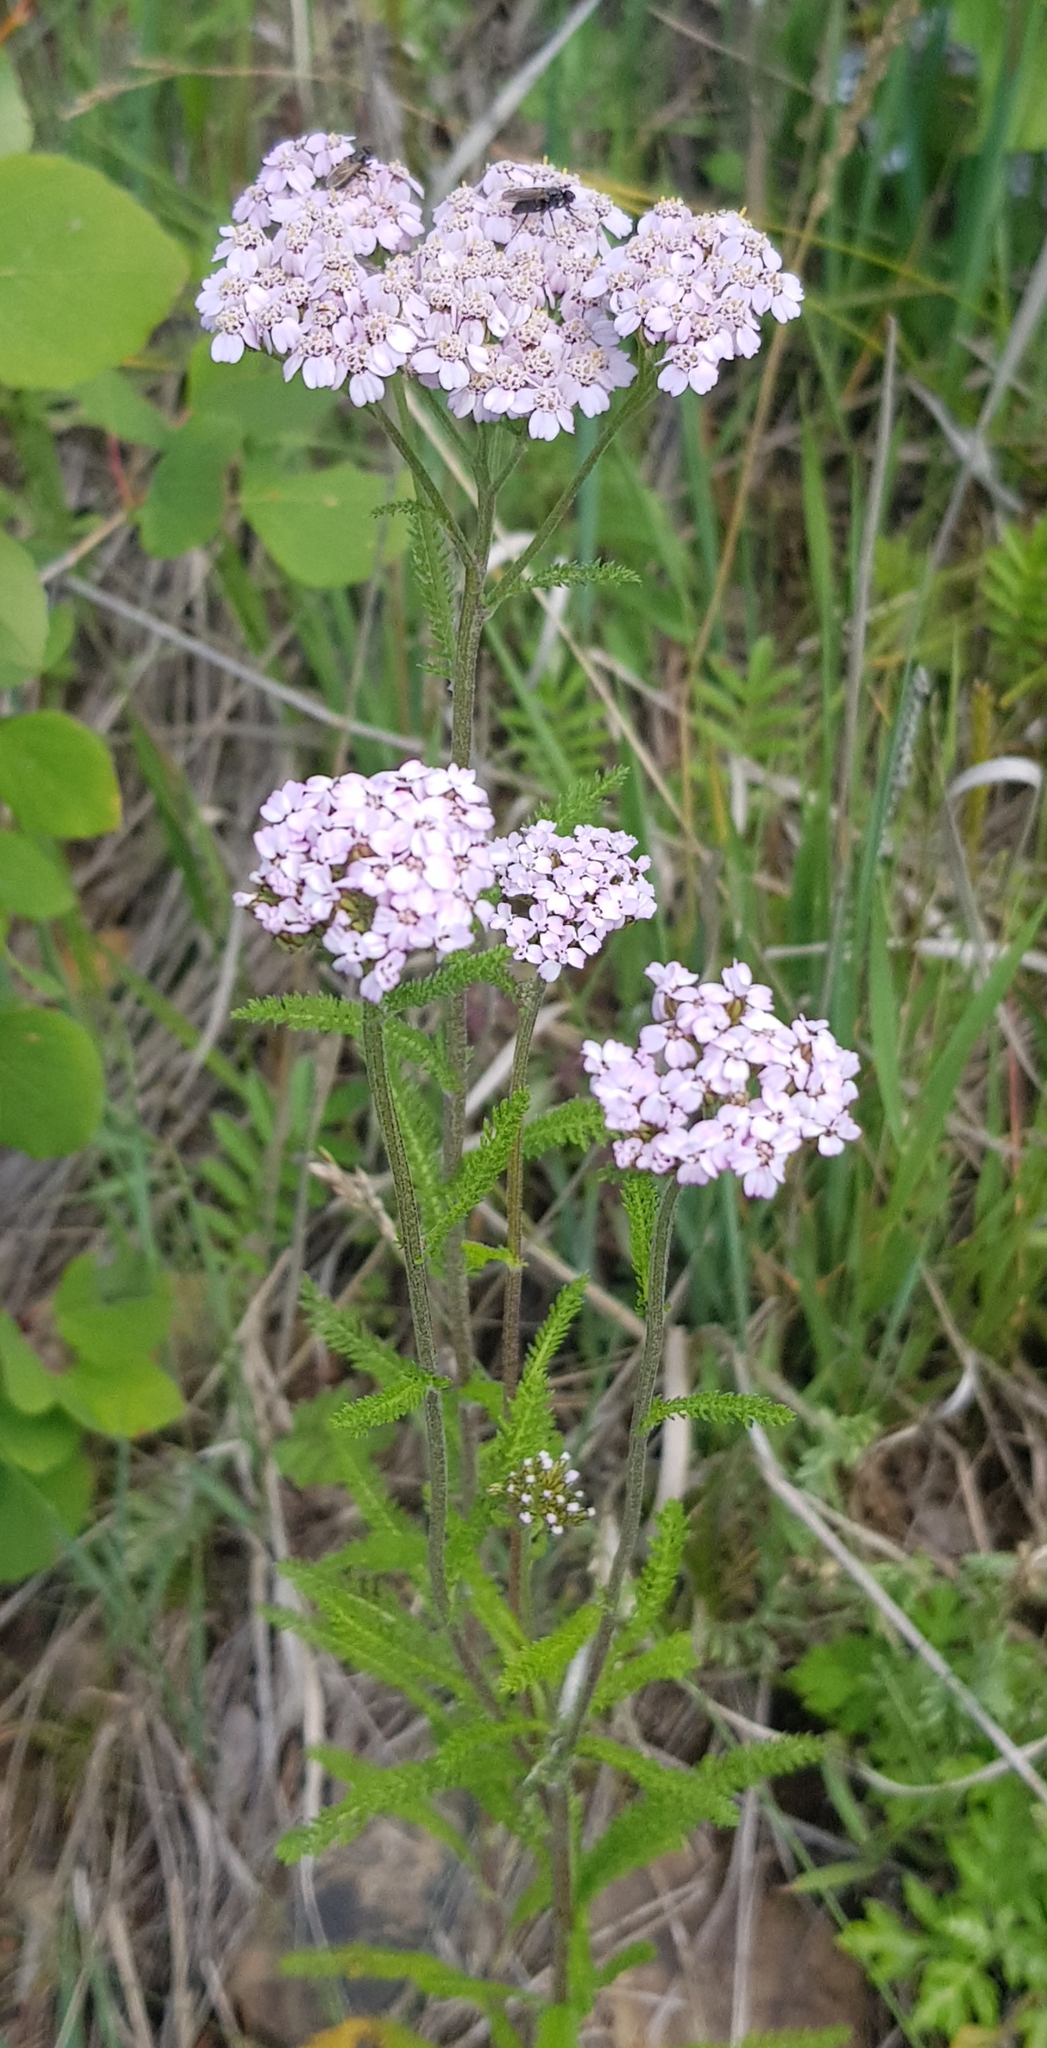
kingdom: Plantae
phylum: Tracheophyta
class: Magnoliopsida
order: Asterales
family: Asteraceae
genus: Achillea
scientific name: Achillea asiatica
